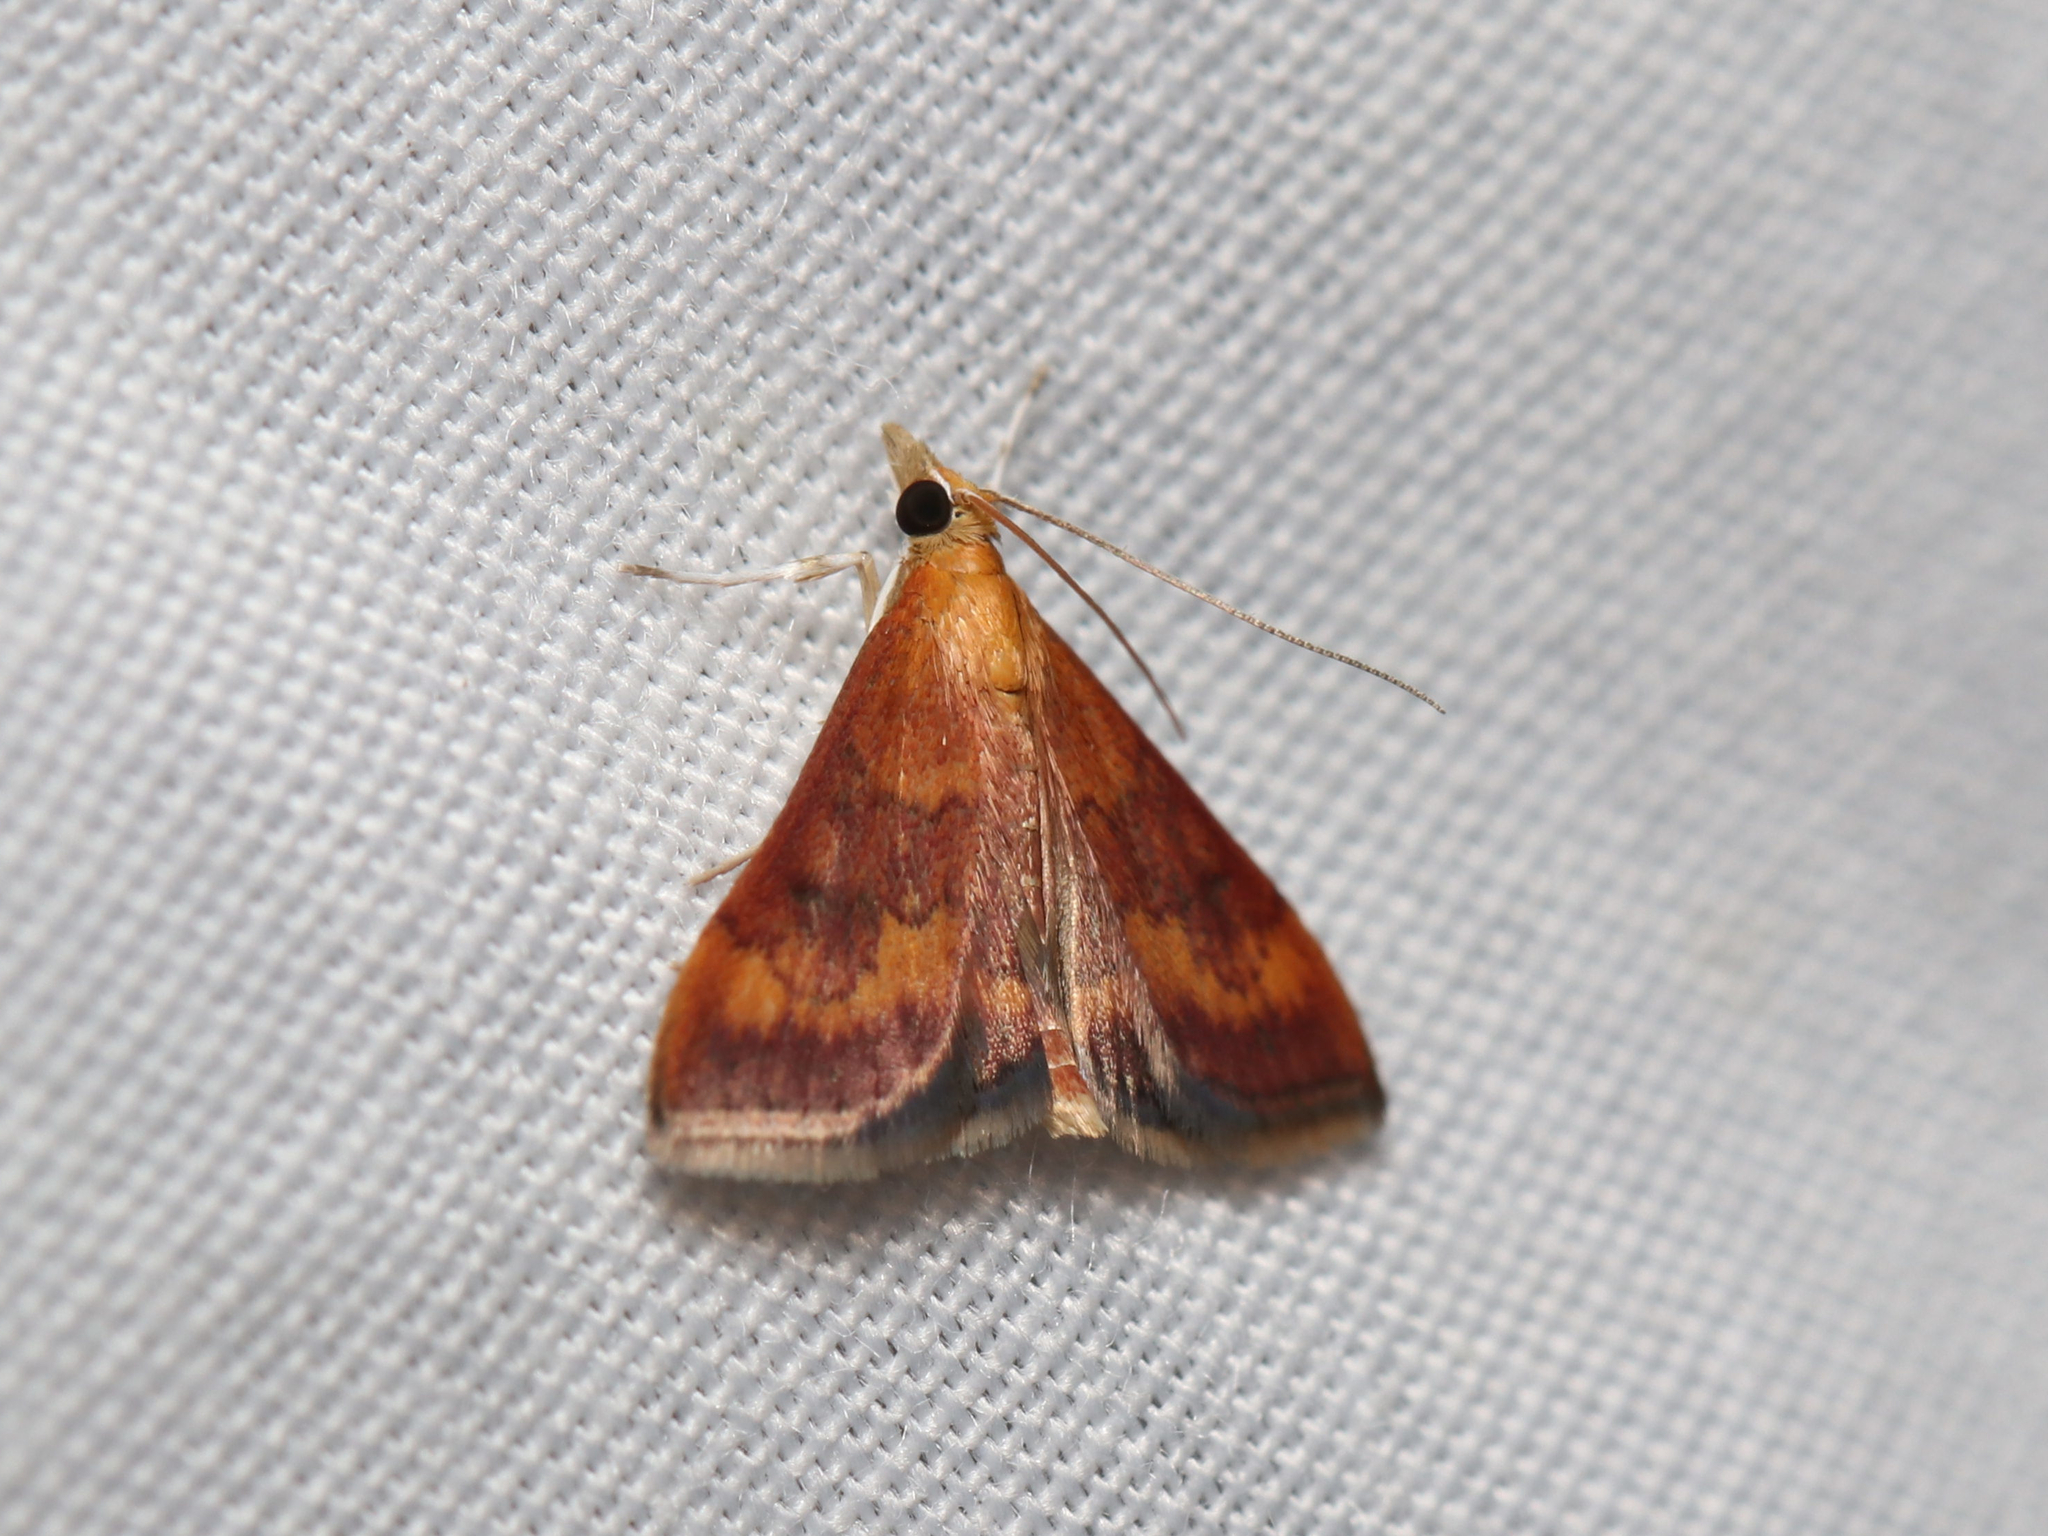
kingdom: Animalia
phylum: Arthropoda
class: Insecta
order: Lepidoptera
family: Crambidae
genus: Pyrausta
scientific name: Pyrausta rubricalis
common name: Variable reddish pyrausta
